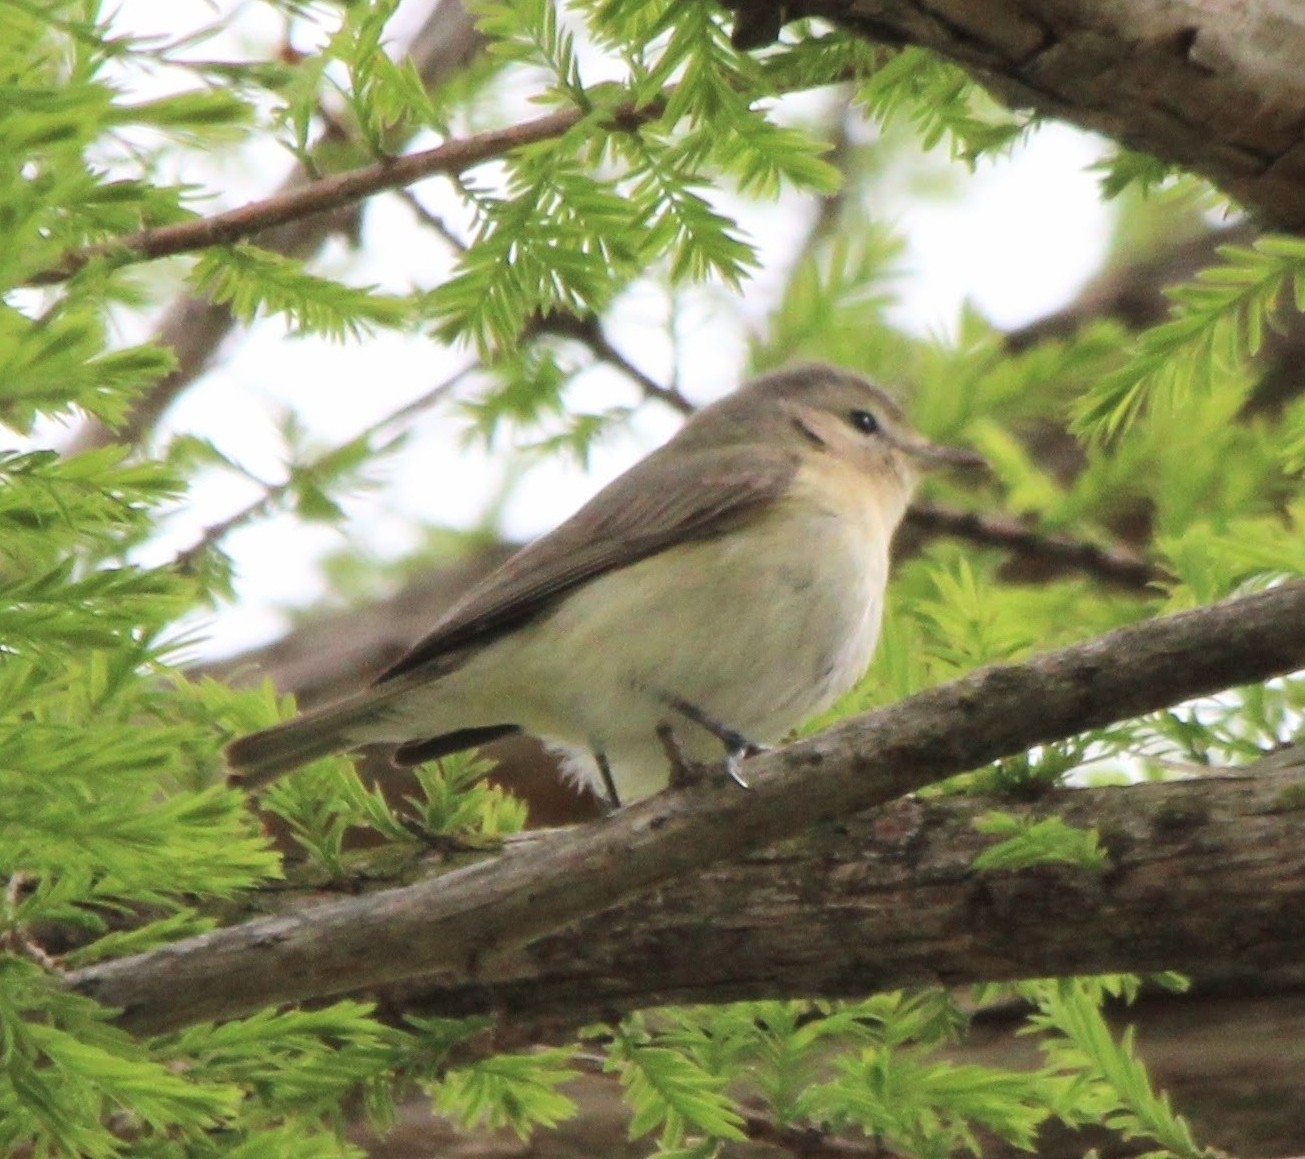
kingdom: Animalia
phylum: Chordata
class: Aves
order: Passeriformes
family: Vireonidae
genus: Vireo
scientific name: Vireo gilvus
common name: Warbling vireo
